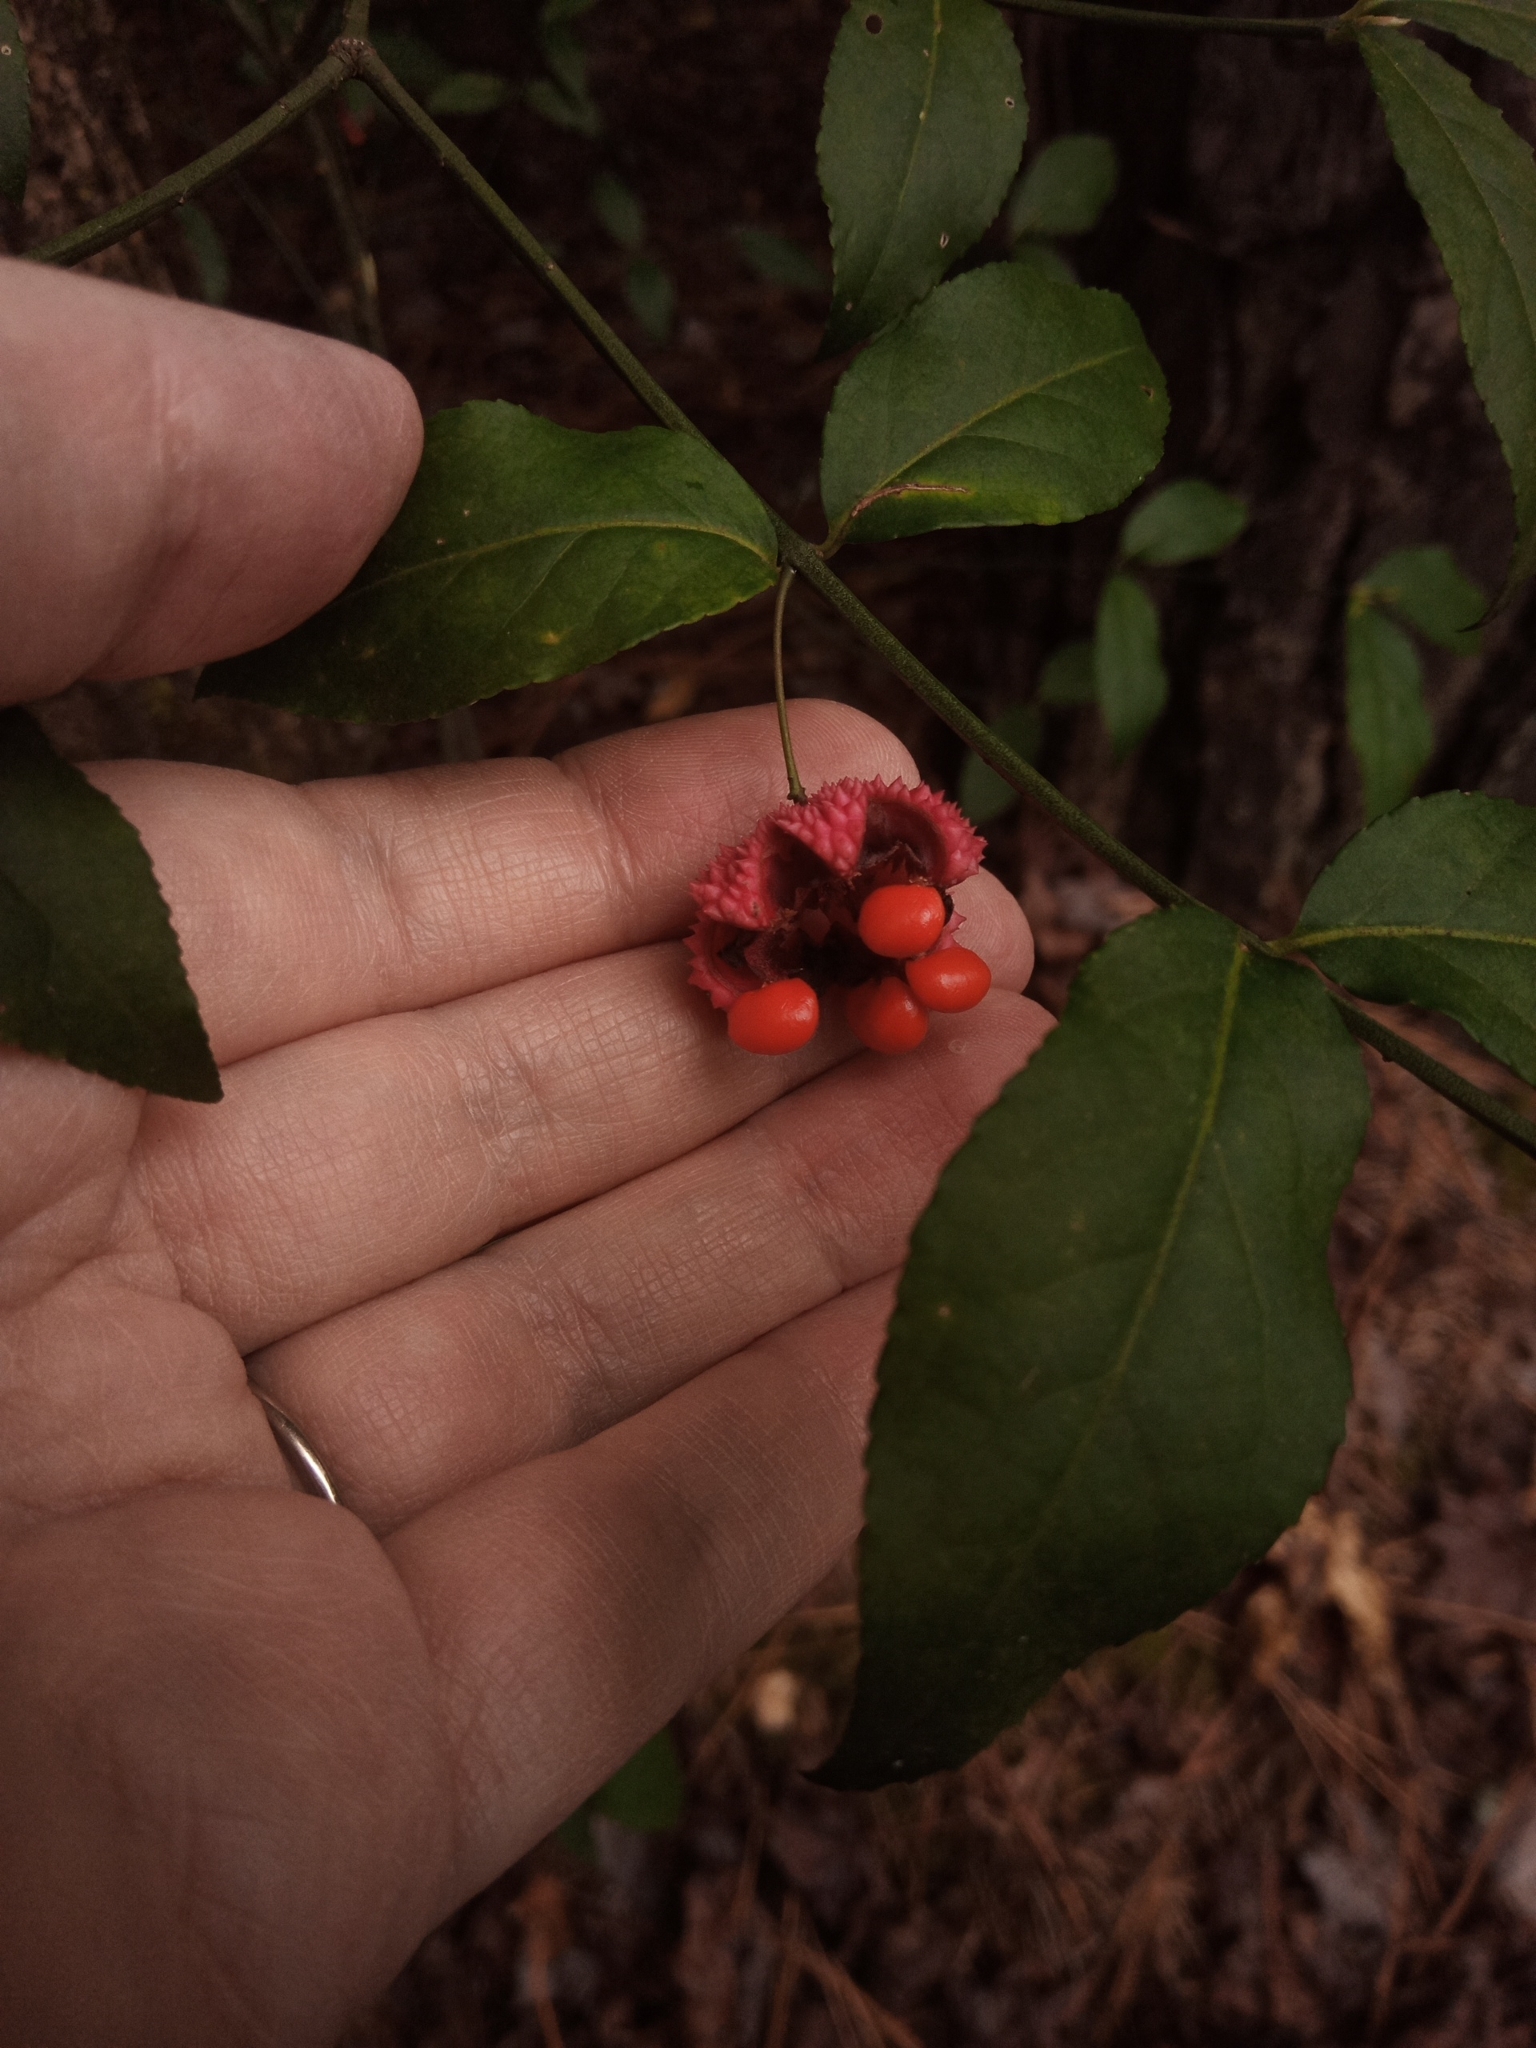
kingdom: Plantae
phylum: Tracheophyta
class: Magnoliopsida
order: Celastrales
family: Celastraceae
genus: Euonymus
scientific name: Euonymus americanus
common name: Bursting-heart
